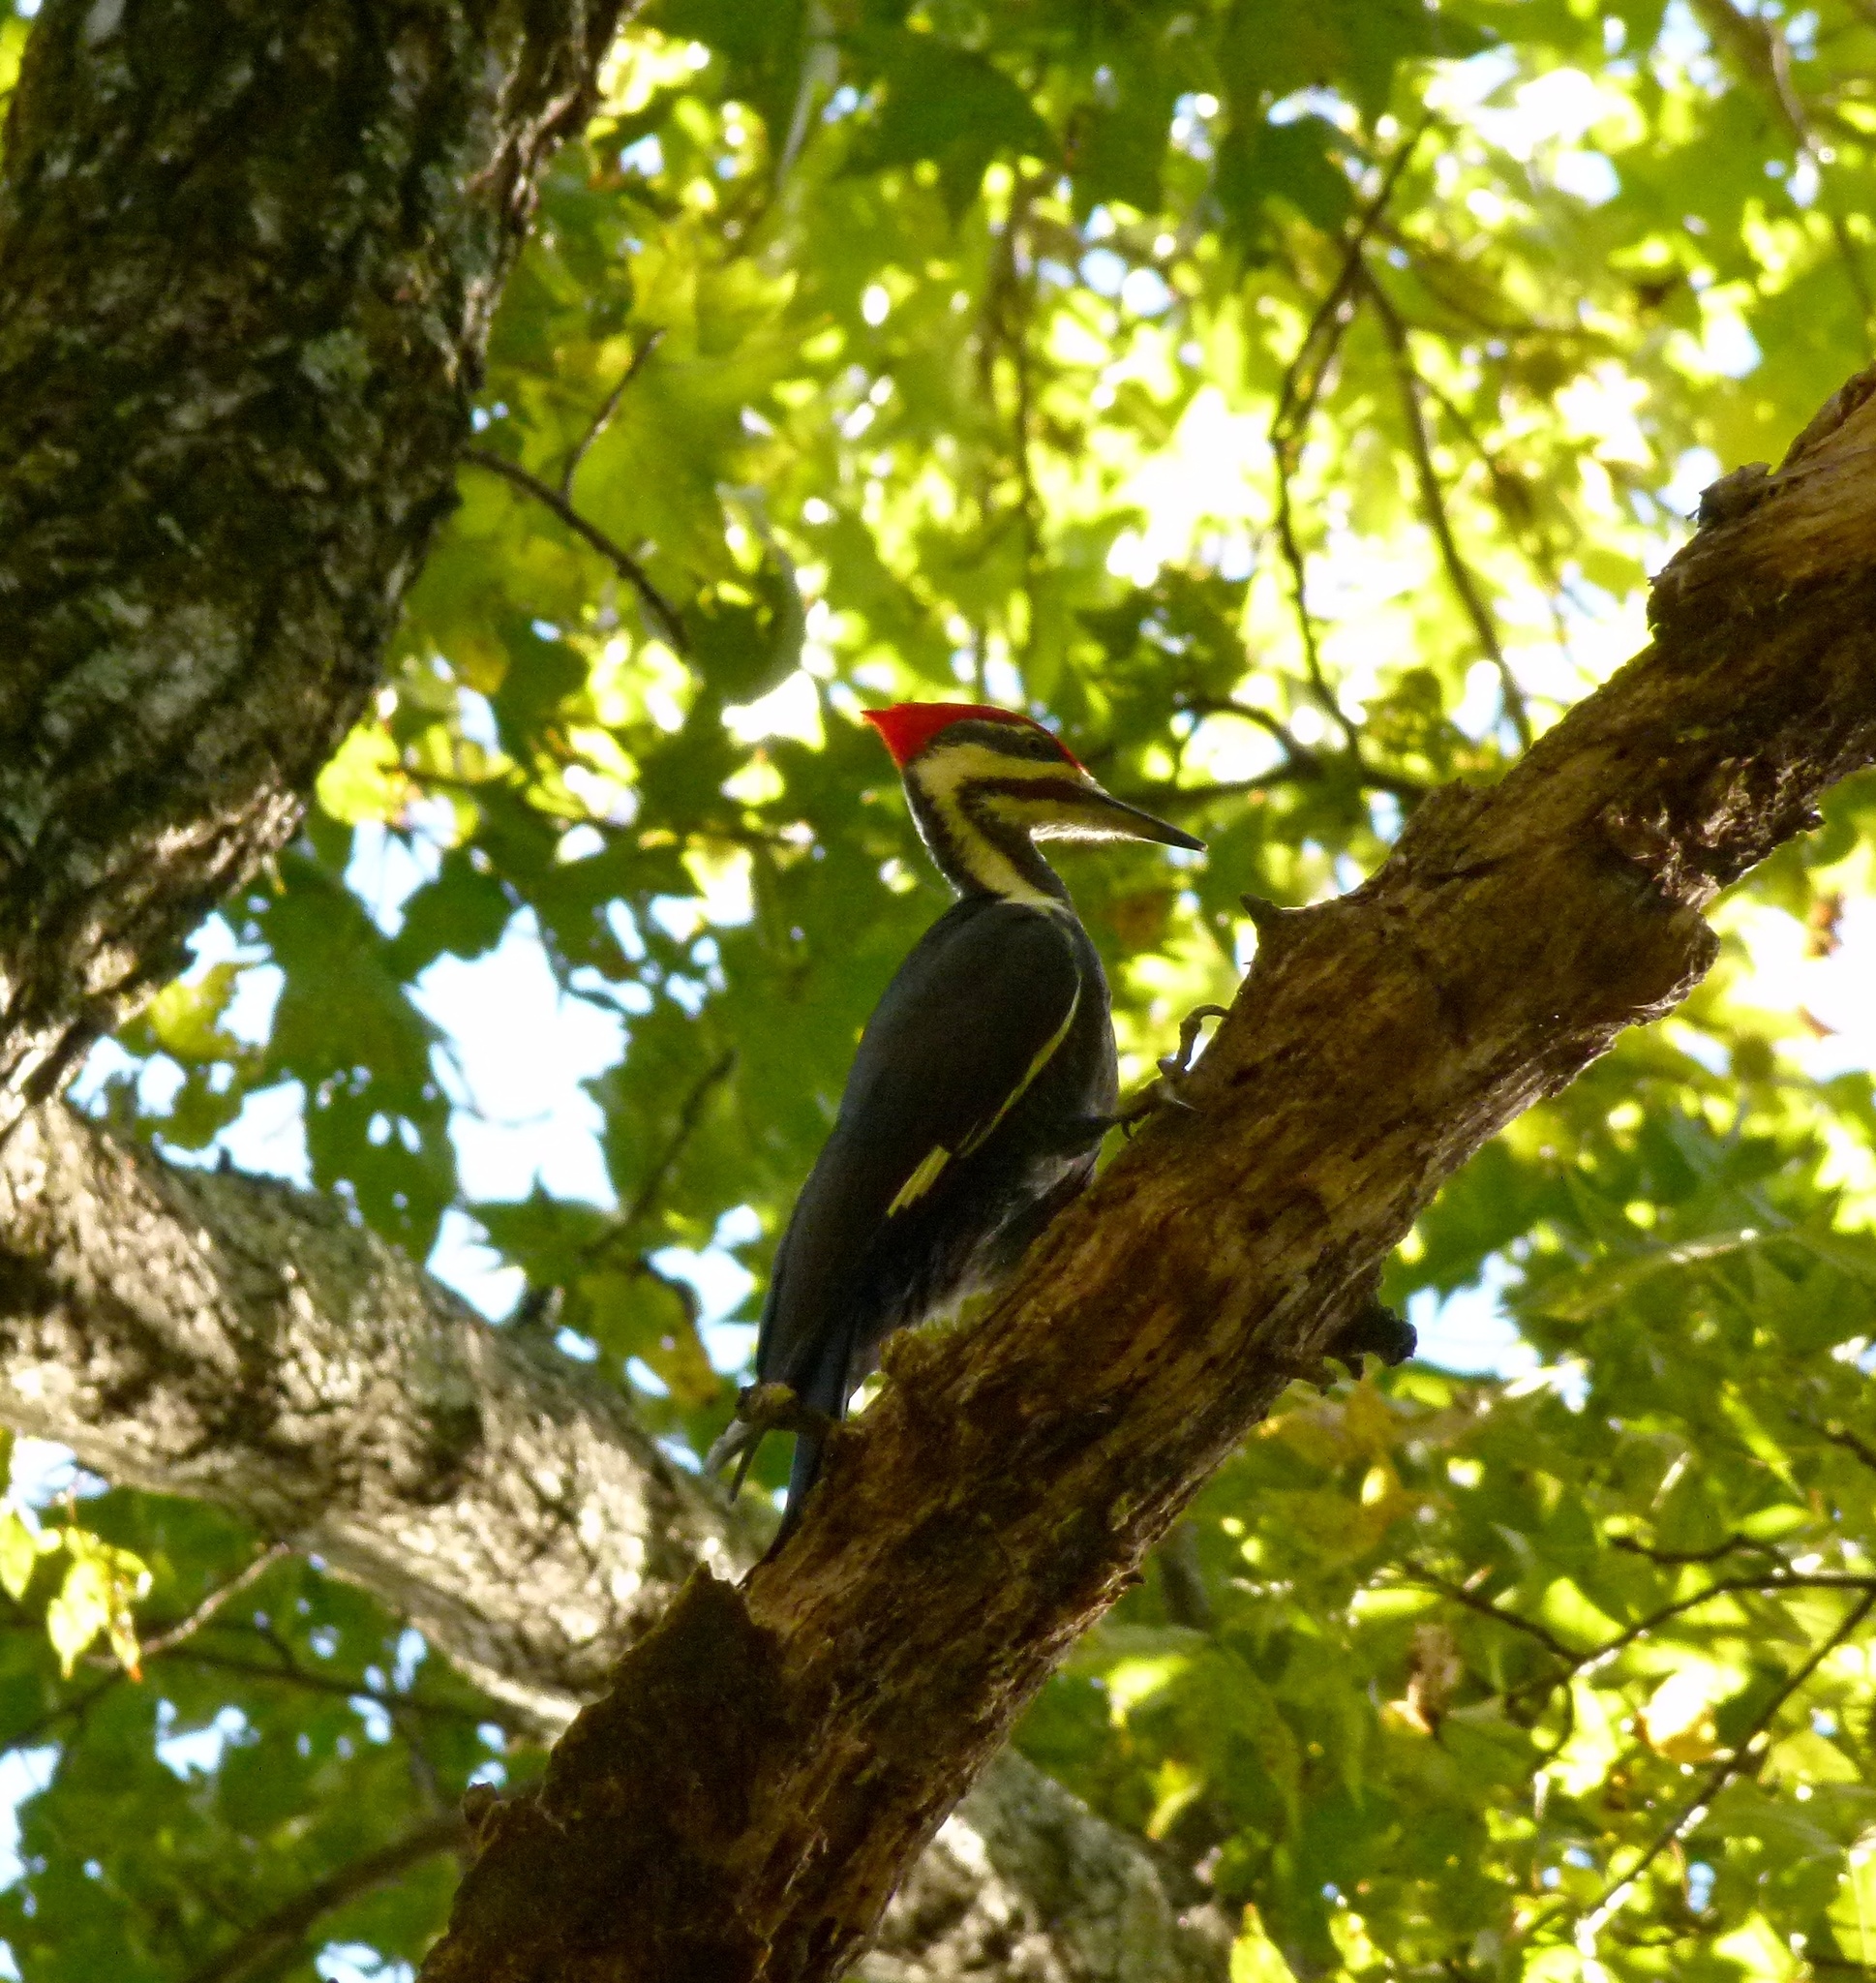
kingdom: Animalia
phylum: Chordata
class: Aves
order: Piciformes
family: Picidae
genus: Dryocopus
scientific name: Dryocopus pileatus
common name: Pileated woodpecker
